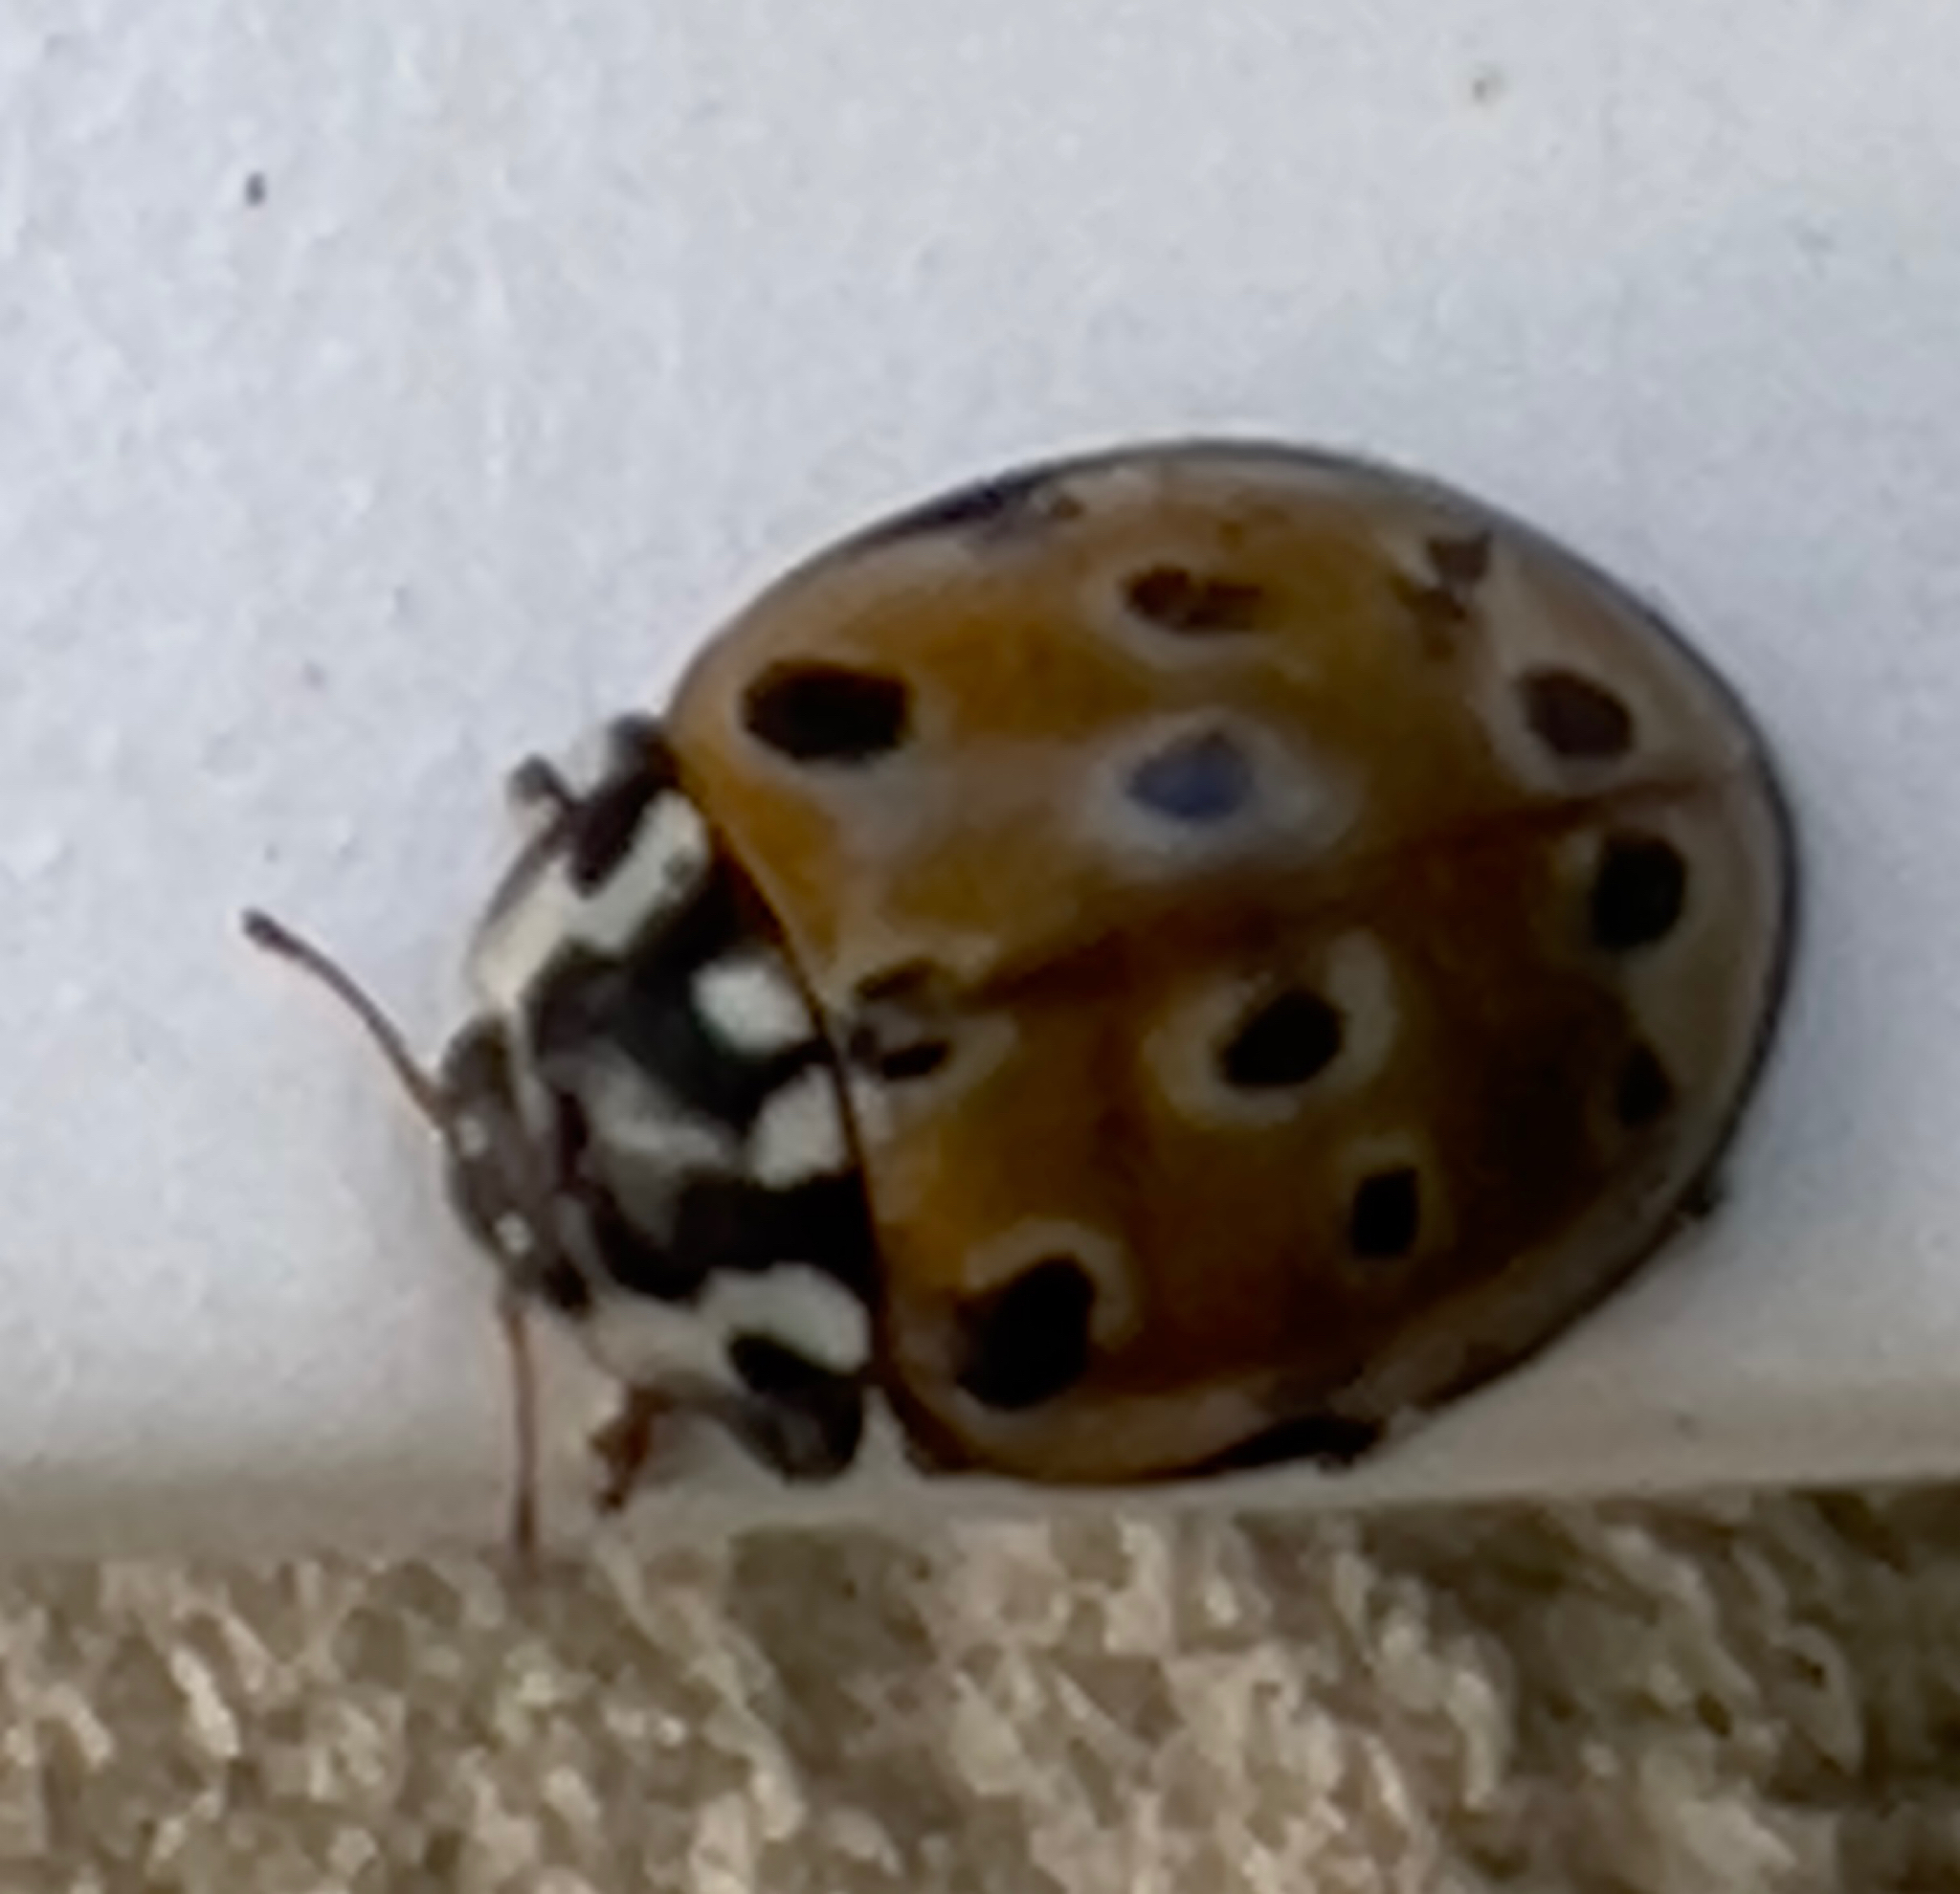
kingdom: Animalia
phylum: Arthropoda
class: Insecta
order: Coleoptera
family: Coccinellidae
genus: Anatis
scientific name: Anatis ocellata
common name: Eyed ladybird
